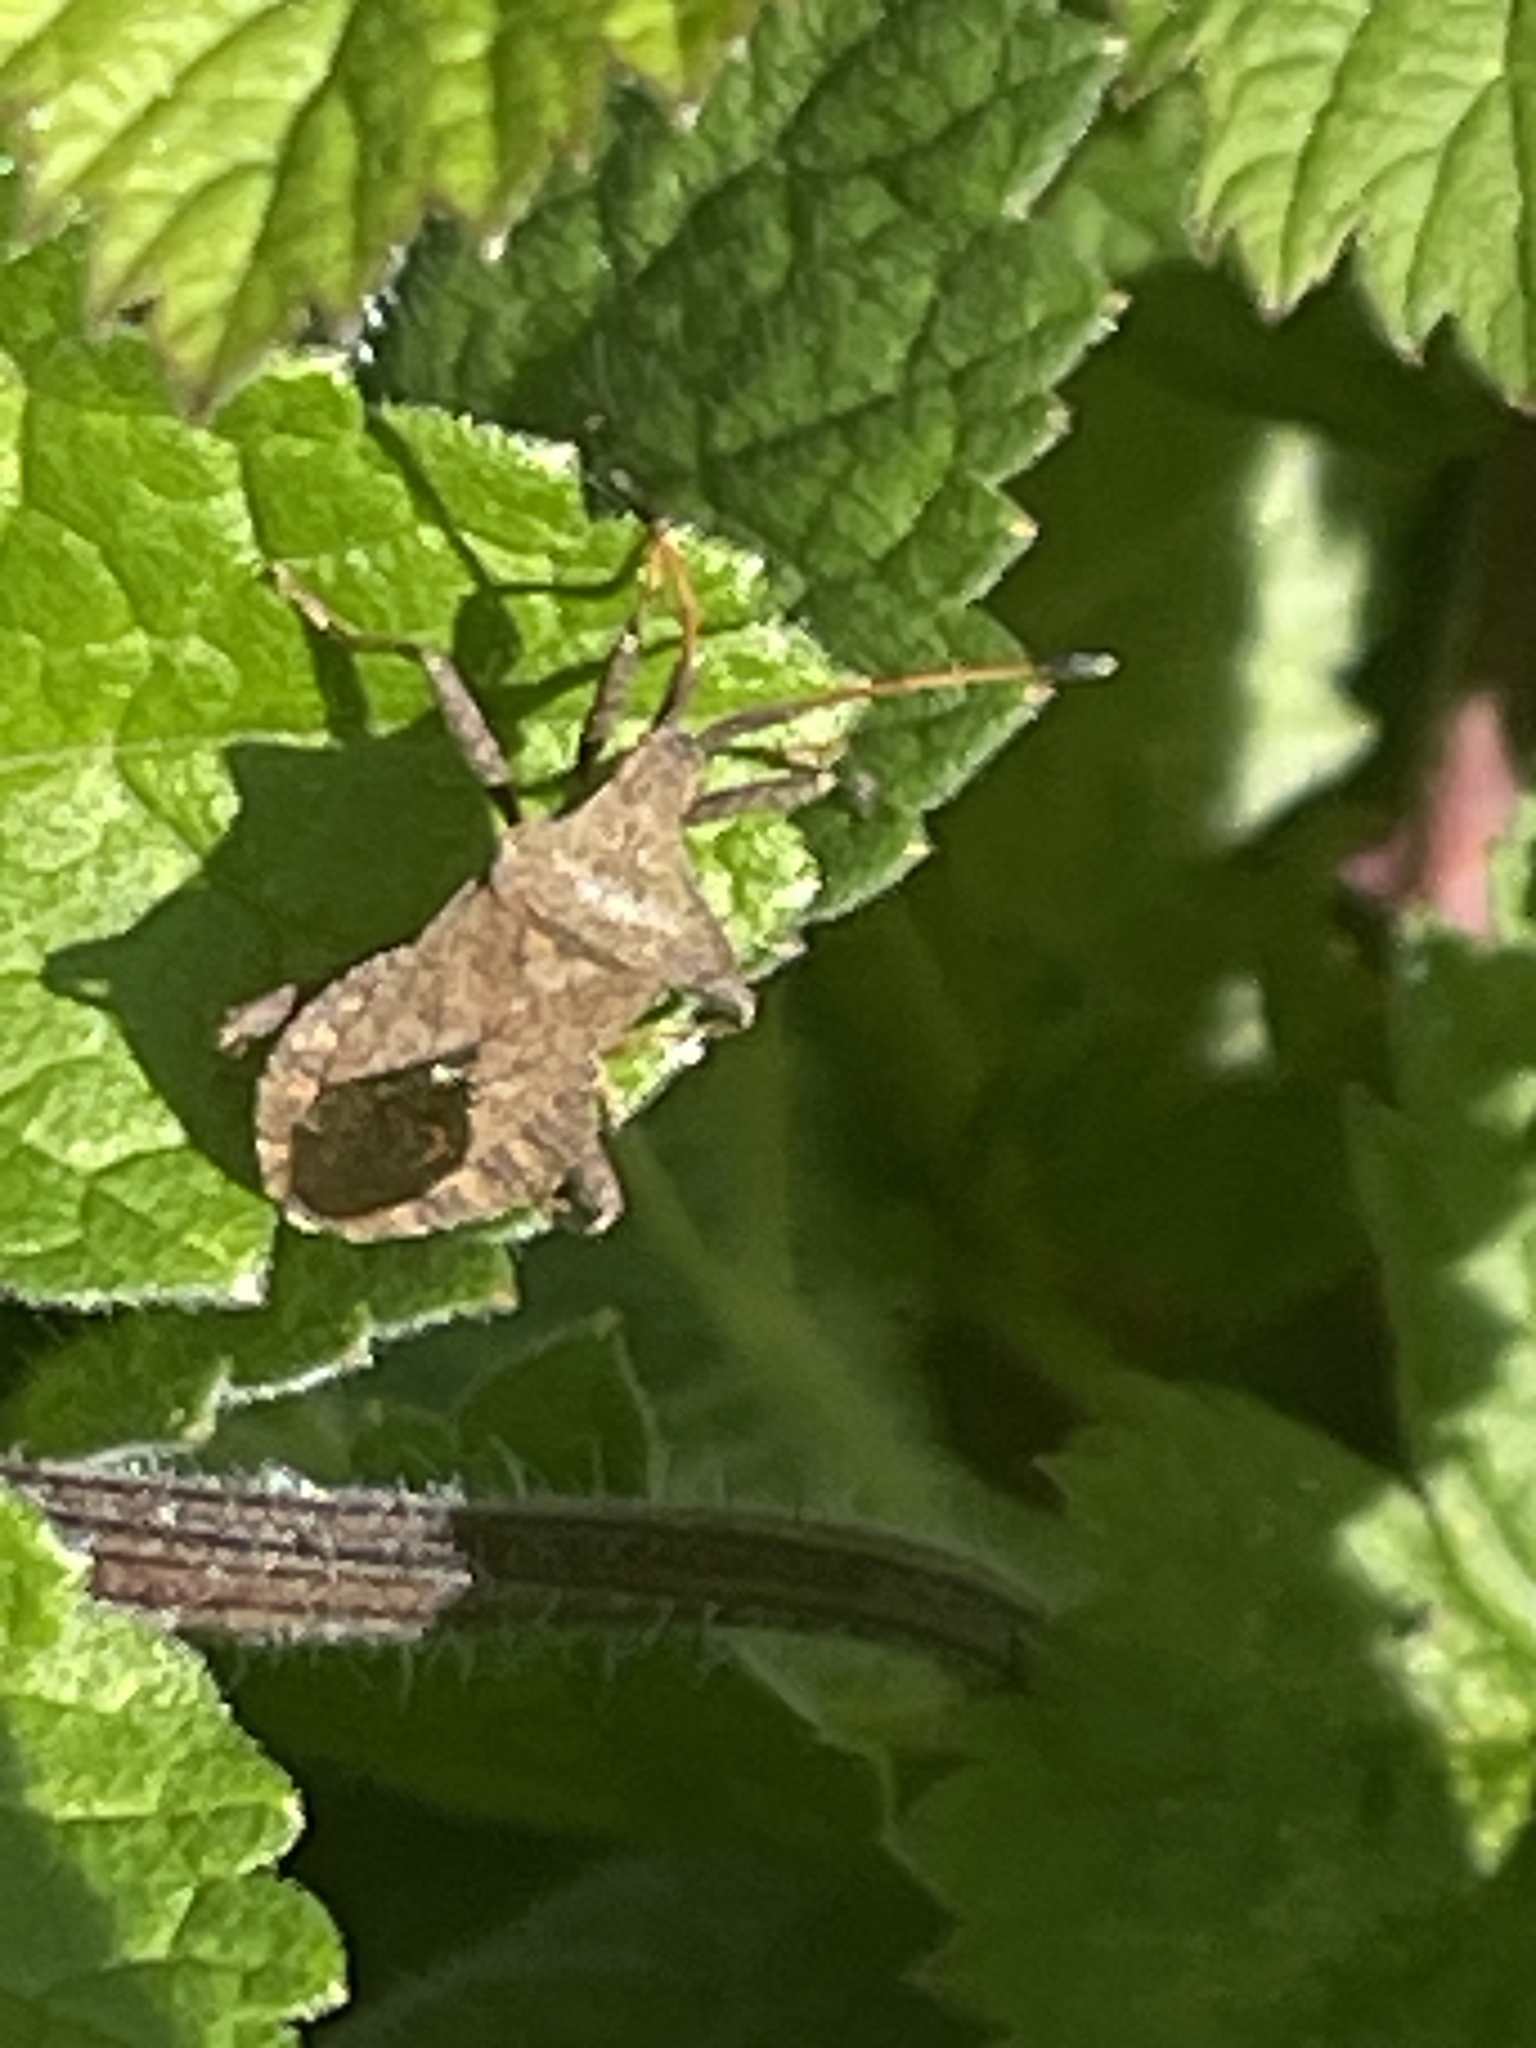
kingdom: Animalia
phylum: Arthropoda
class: Insecta
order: Hemiptera
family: Coreidae
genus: Coreus
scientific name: Coreus marginatus
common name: Dock bug
